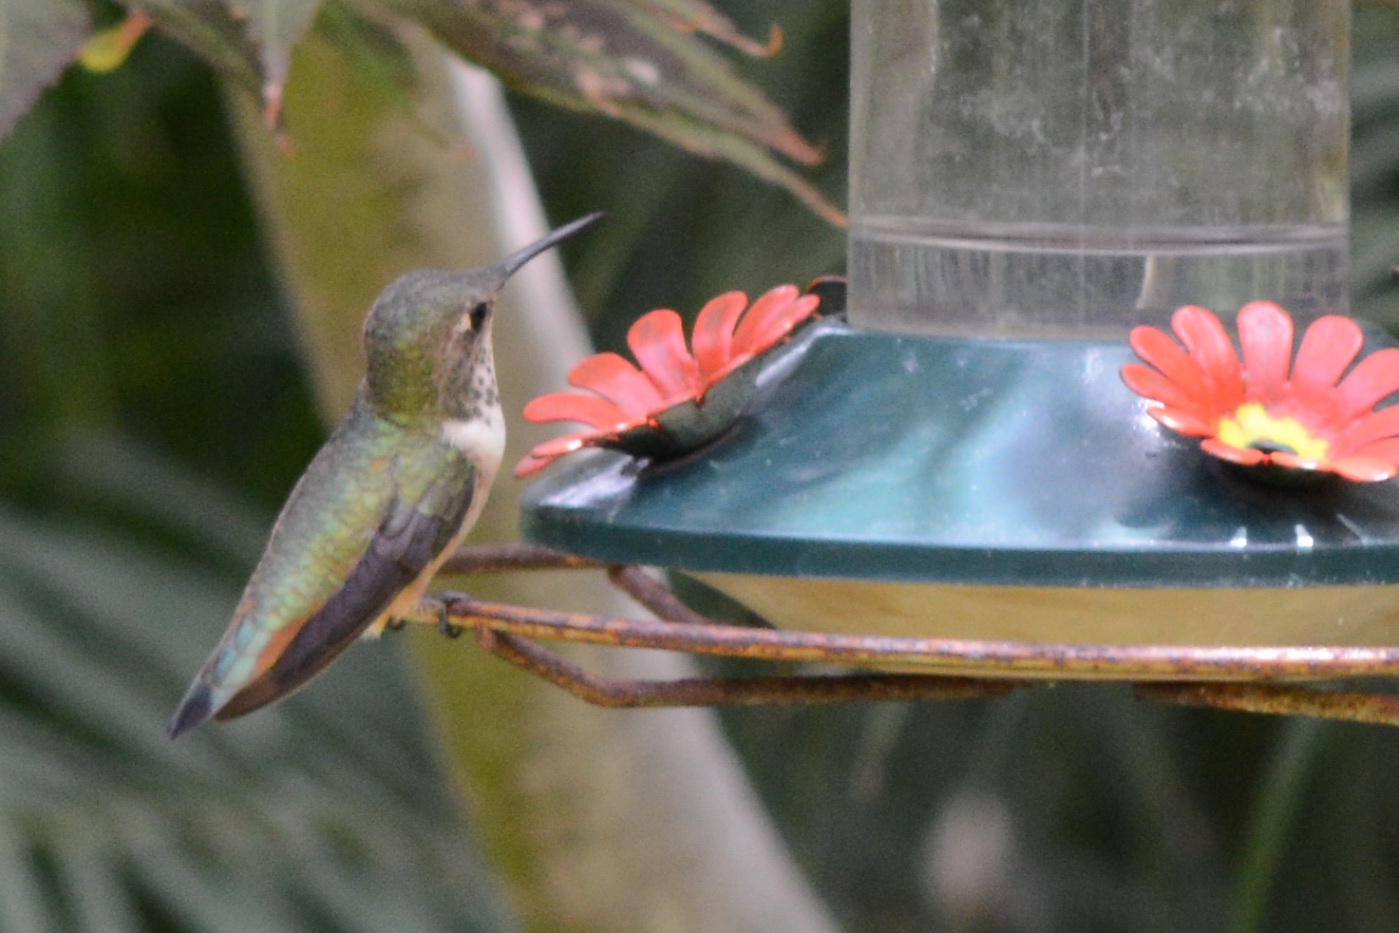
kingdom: Animalia
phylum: Chordata
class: Aves
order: Apodiformes
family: Trochilidae
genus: Selasphorus
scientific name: Selasphorus sasin
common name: Allen's hummingbird
